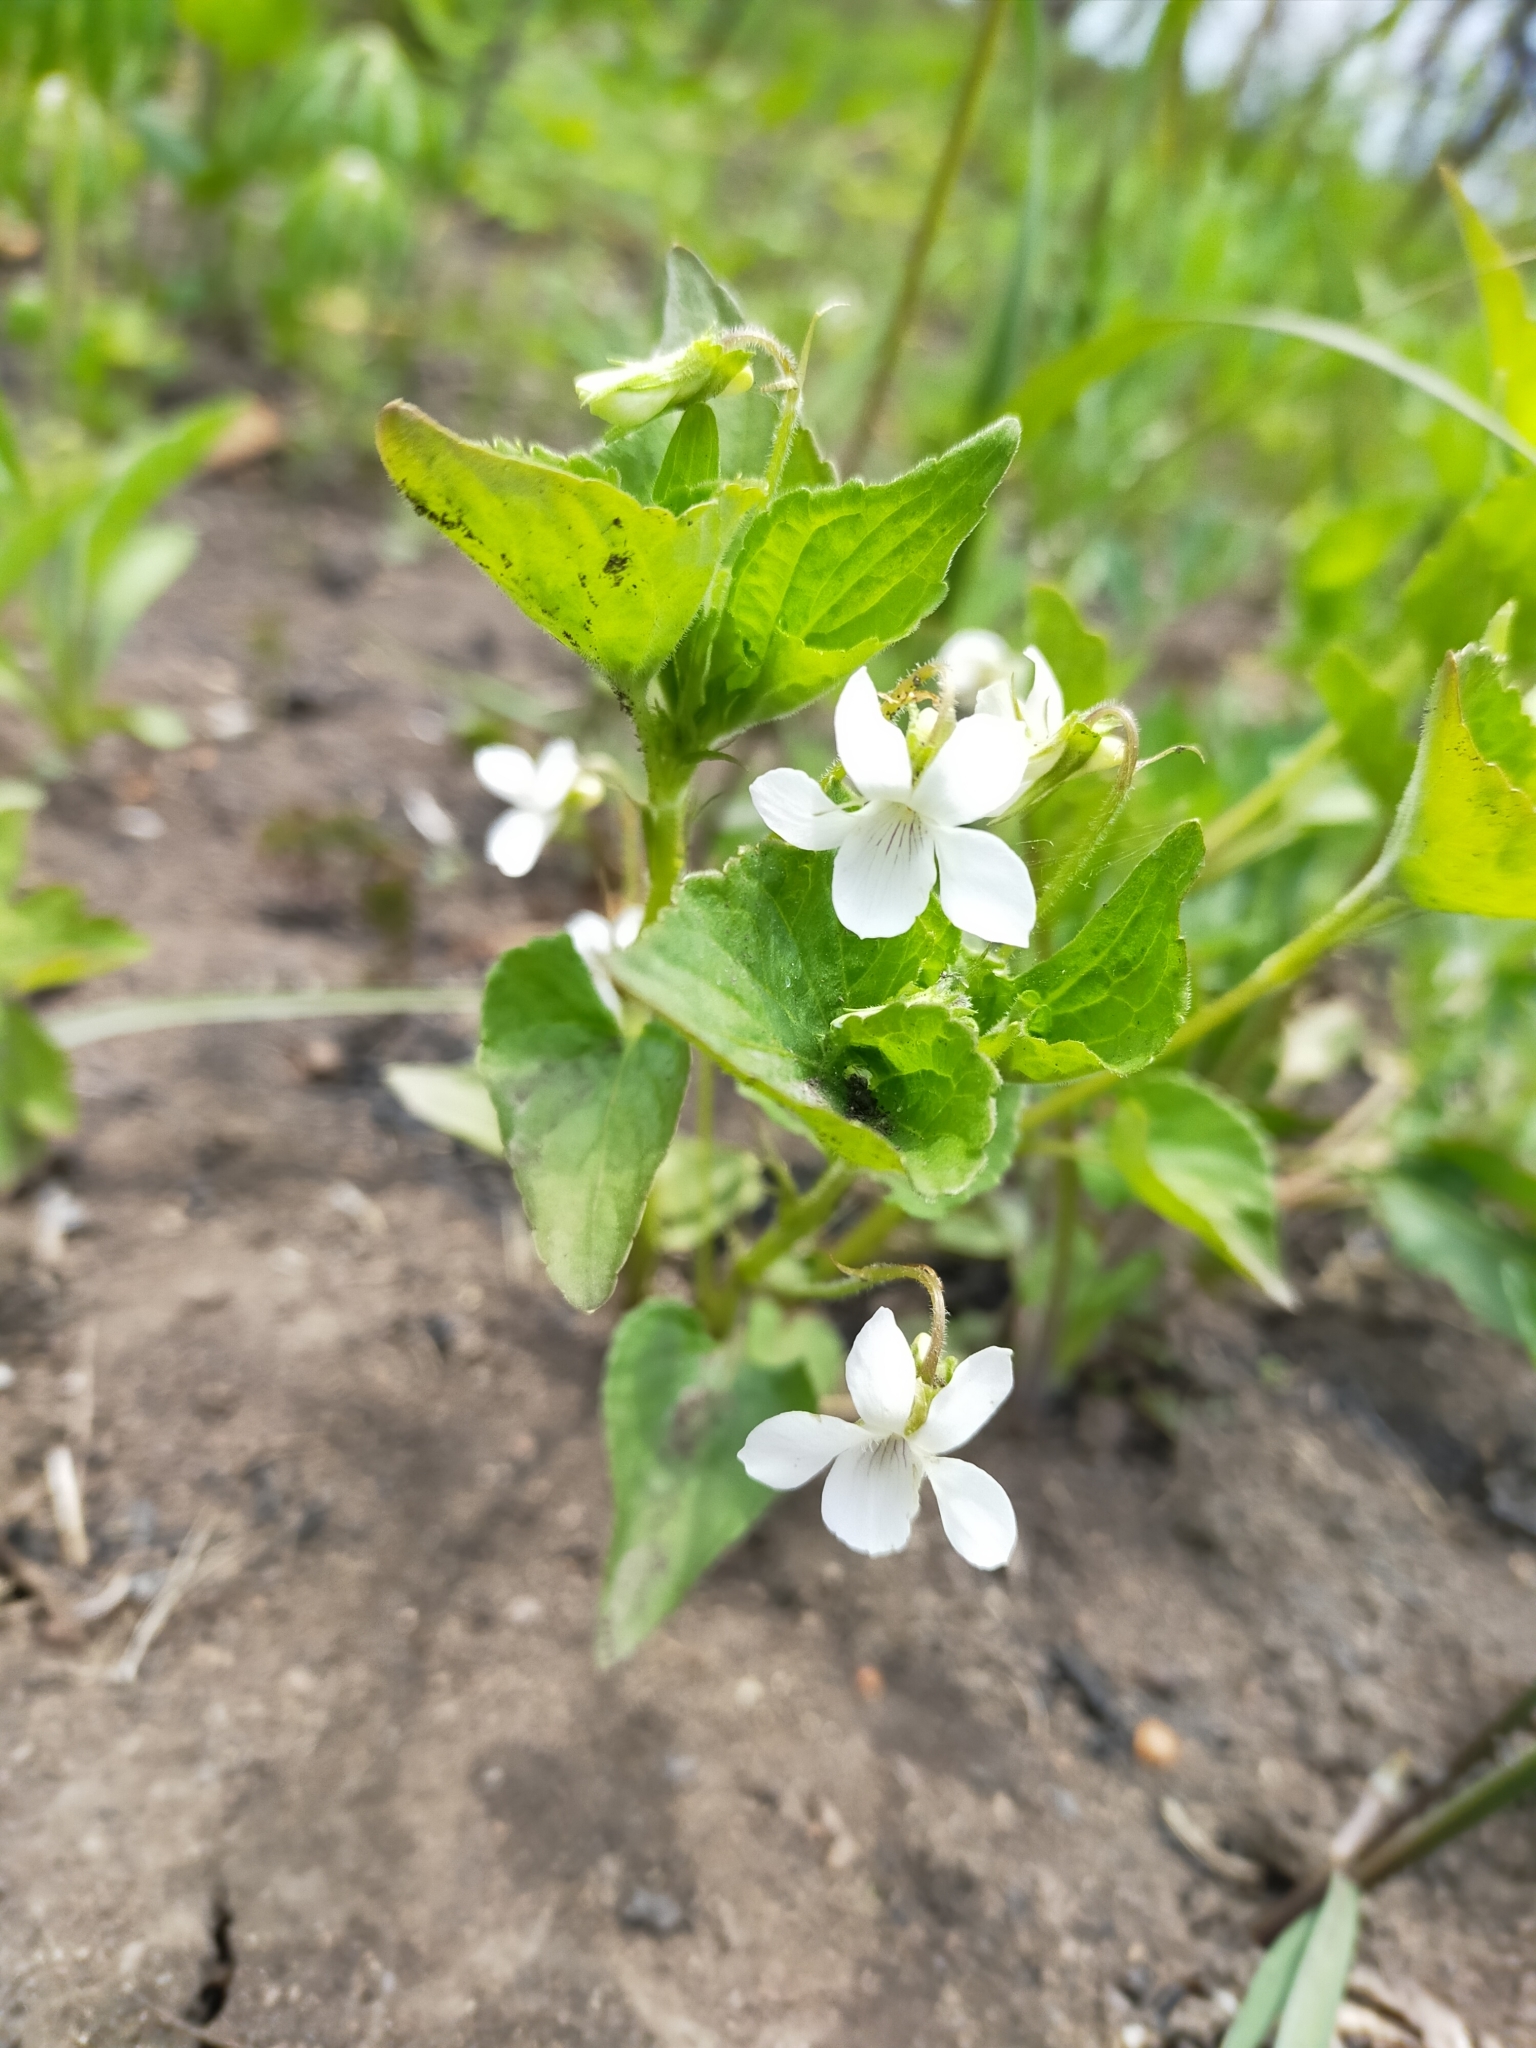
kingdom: Plantae
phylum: Tracheophyta
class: Magnoliopsida
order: Malpighiales
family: Violaceae
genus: Viola
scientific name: Viola acuminata
